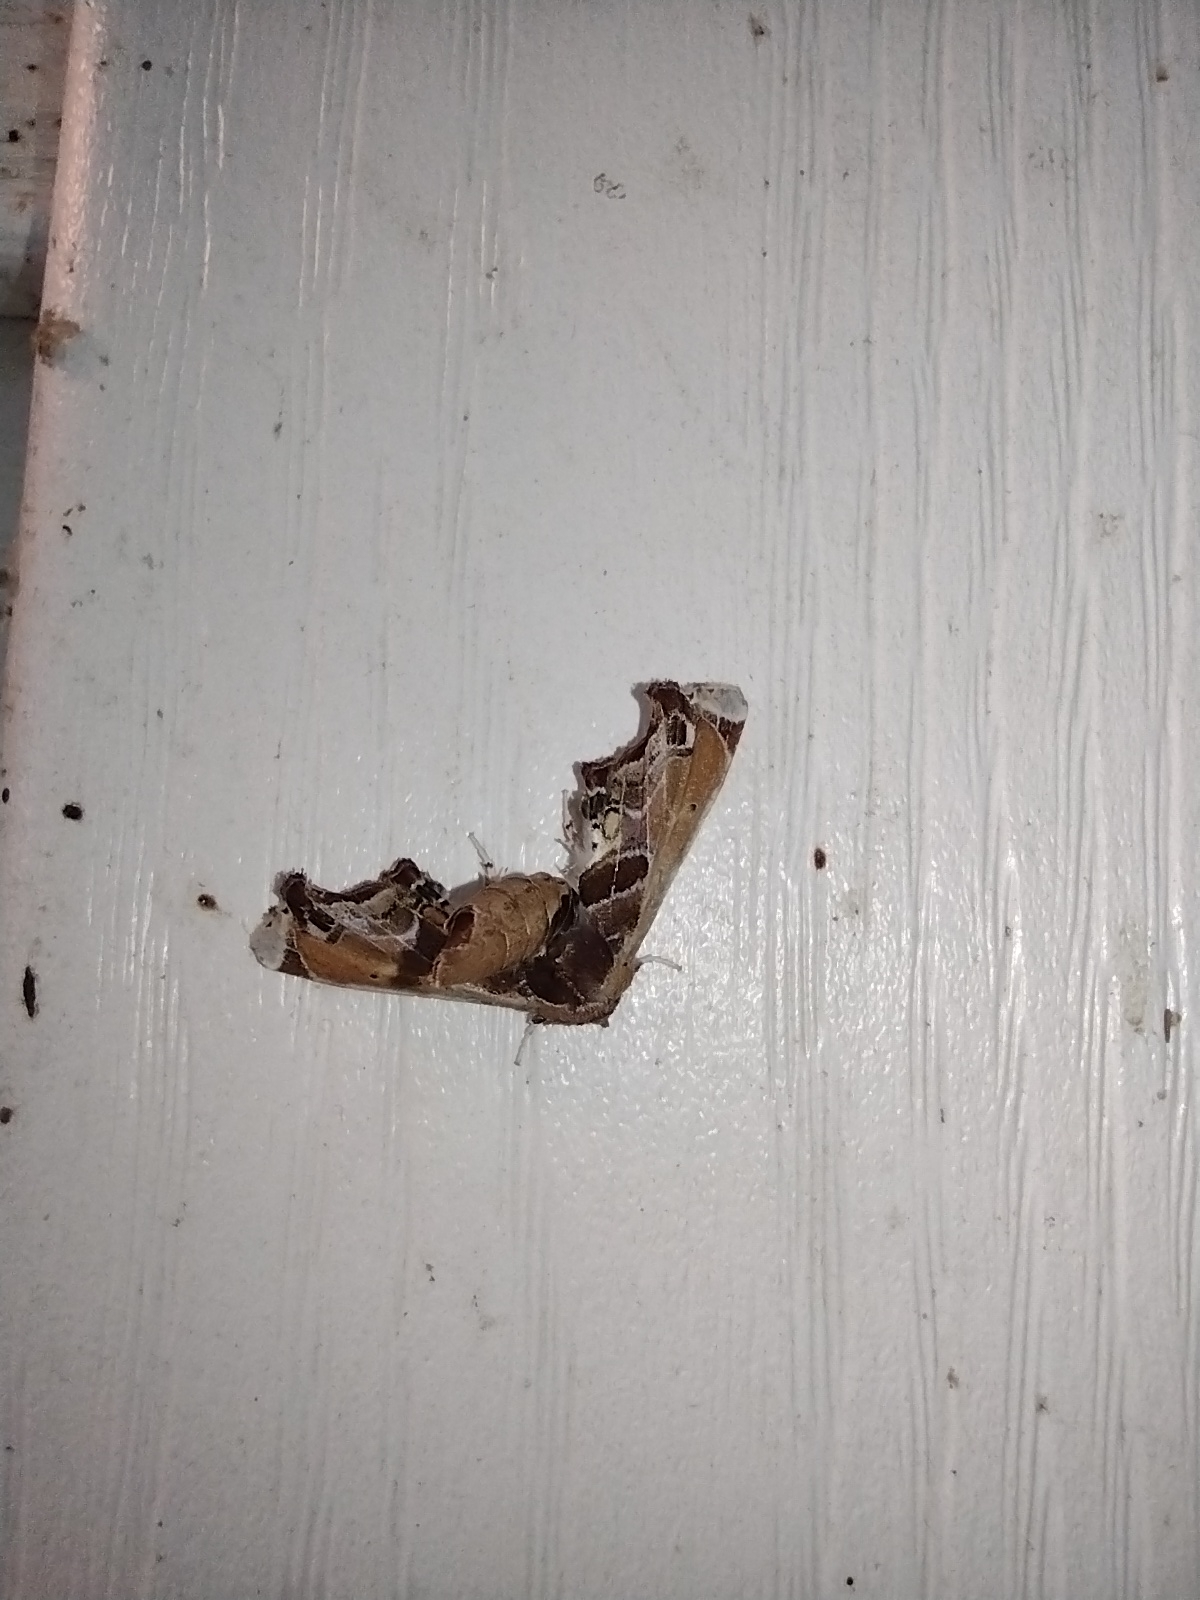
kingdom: Animalia
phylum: Arthropoda
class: Insecta
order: Lepidoptera
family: Euteliidae
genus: Eutelia
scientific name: Eutelia pulcherrimus
